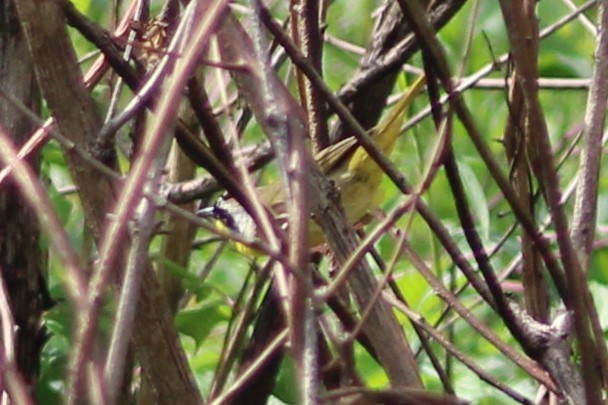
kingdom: Animalia
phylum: Chordata
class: Aves
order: Passeriformes
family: Parulidae
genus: Geothlypis
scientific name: Geothlypis trichas
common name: Common yellowthroat
